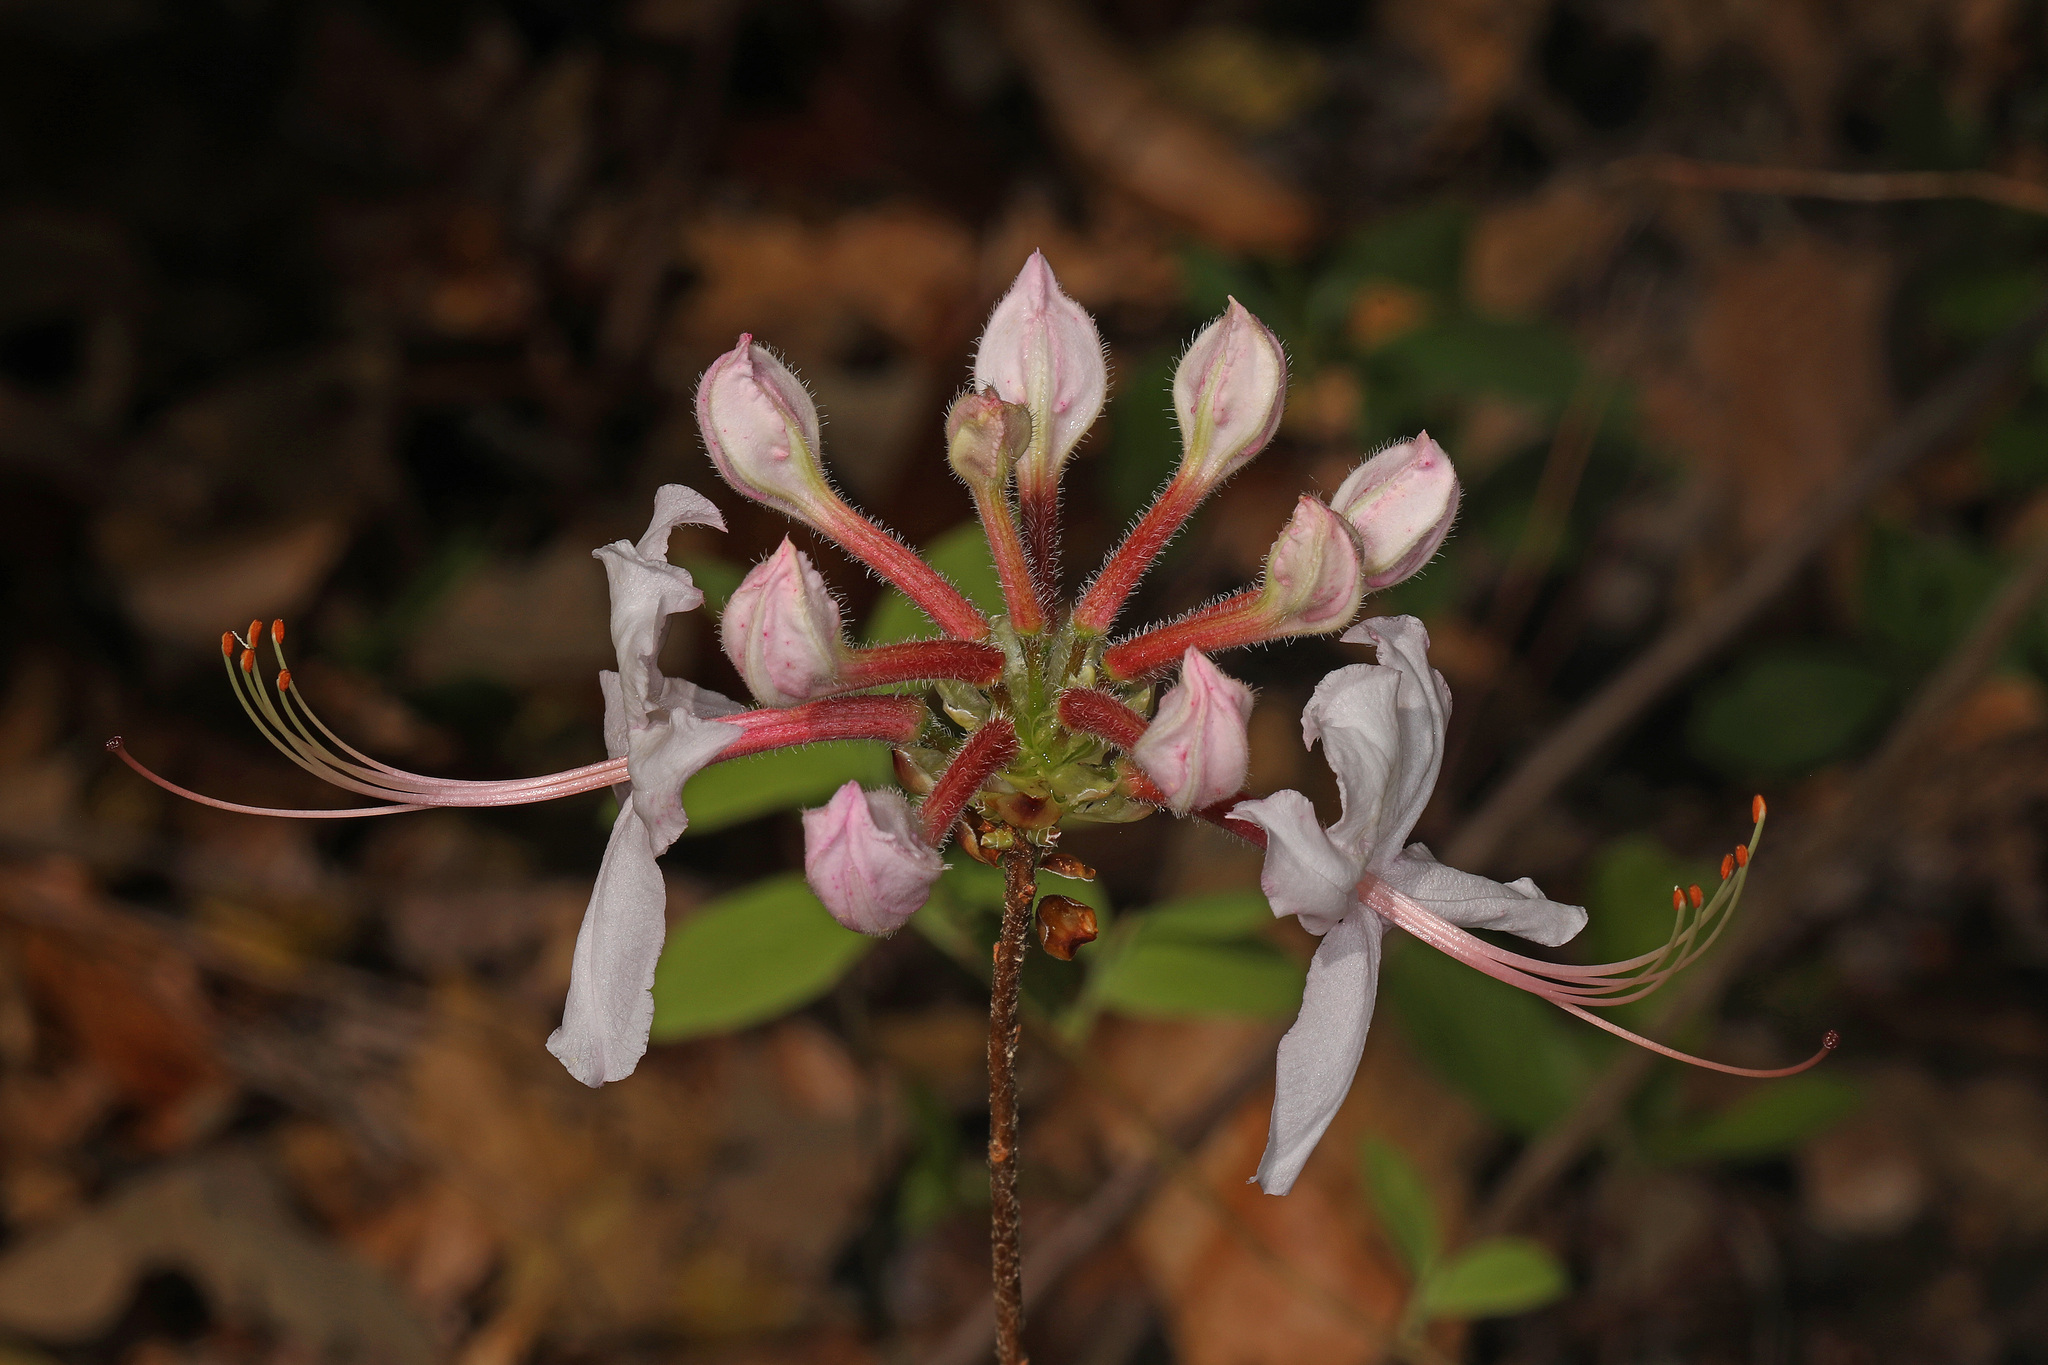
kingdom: Plantae
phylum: Tracheophyta
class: Magnoliopsida
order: Ericales
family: Ericaceae
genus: Rhododendron
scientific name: Rhododendron periclymenoides
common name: Election-pink
